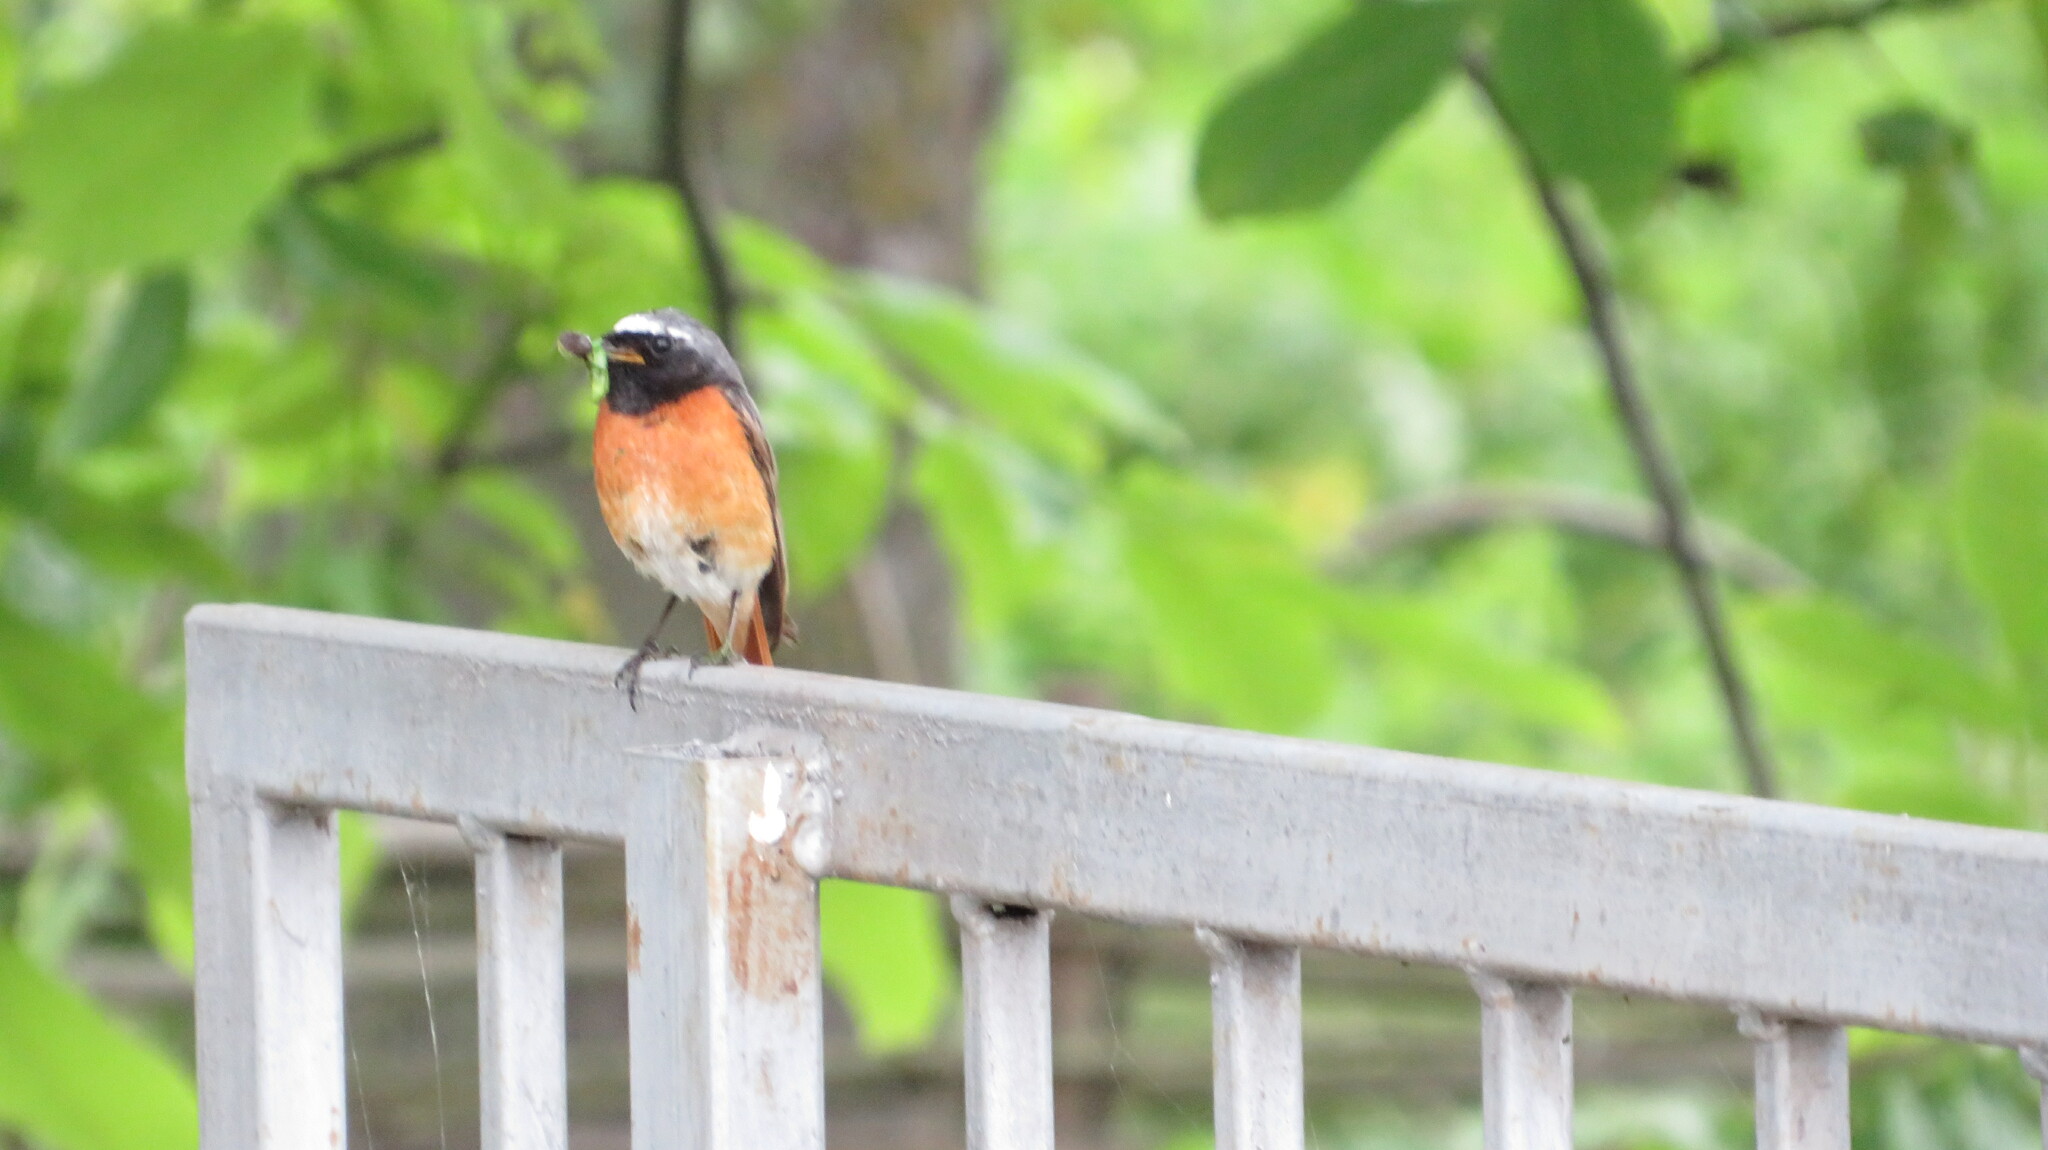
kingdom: Animalia
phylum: Chordata
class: Aves
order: Passeriformes
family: Muscicapidae
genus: Phoenicurus
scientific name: Phoenicurus phoenicurus
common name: Common redstart
